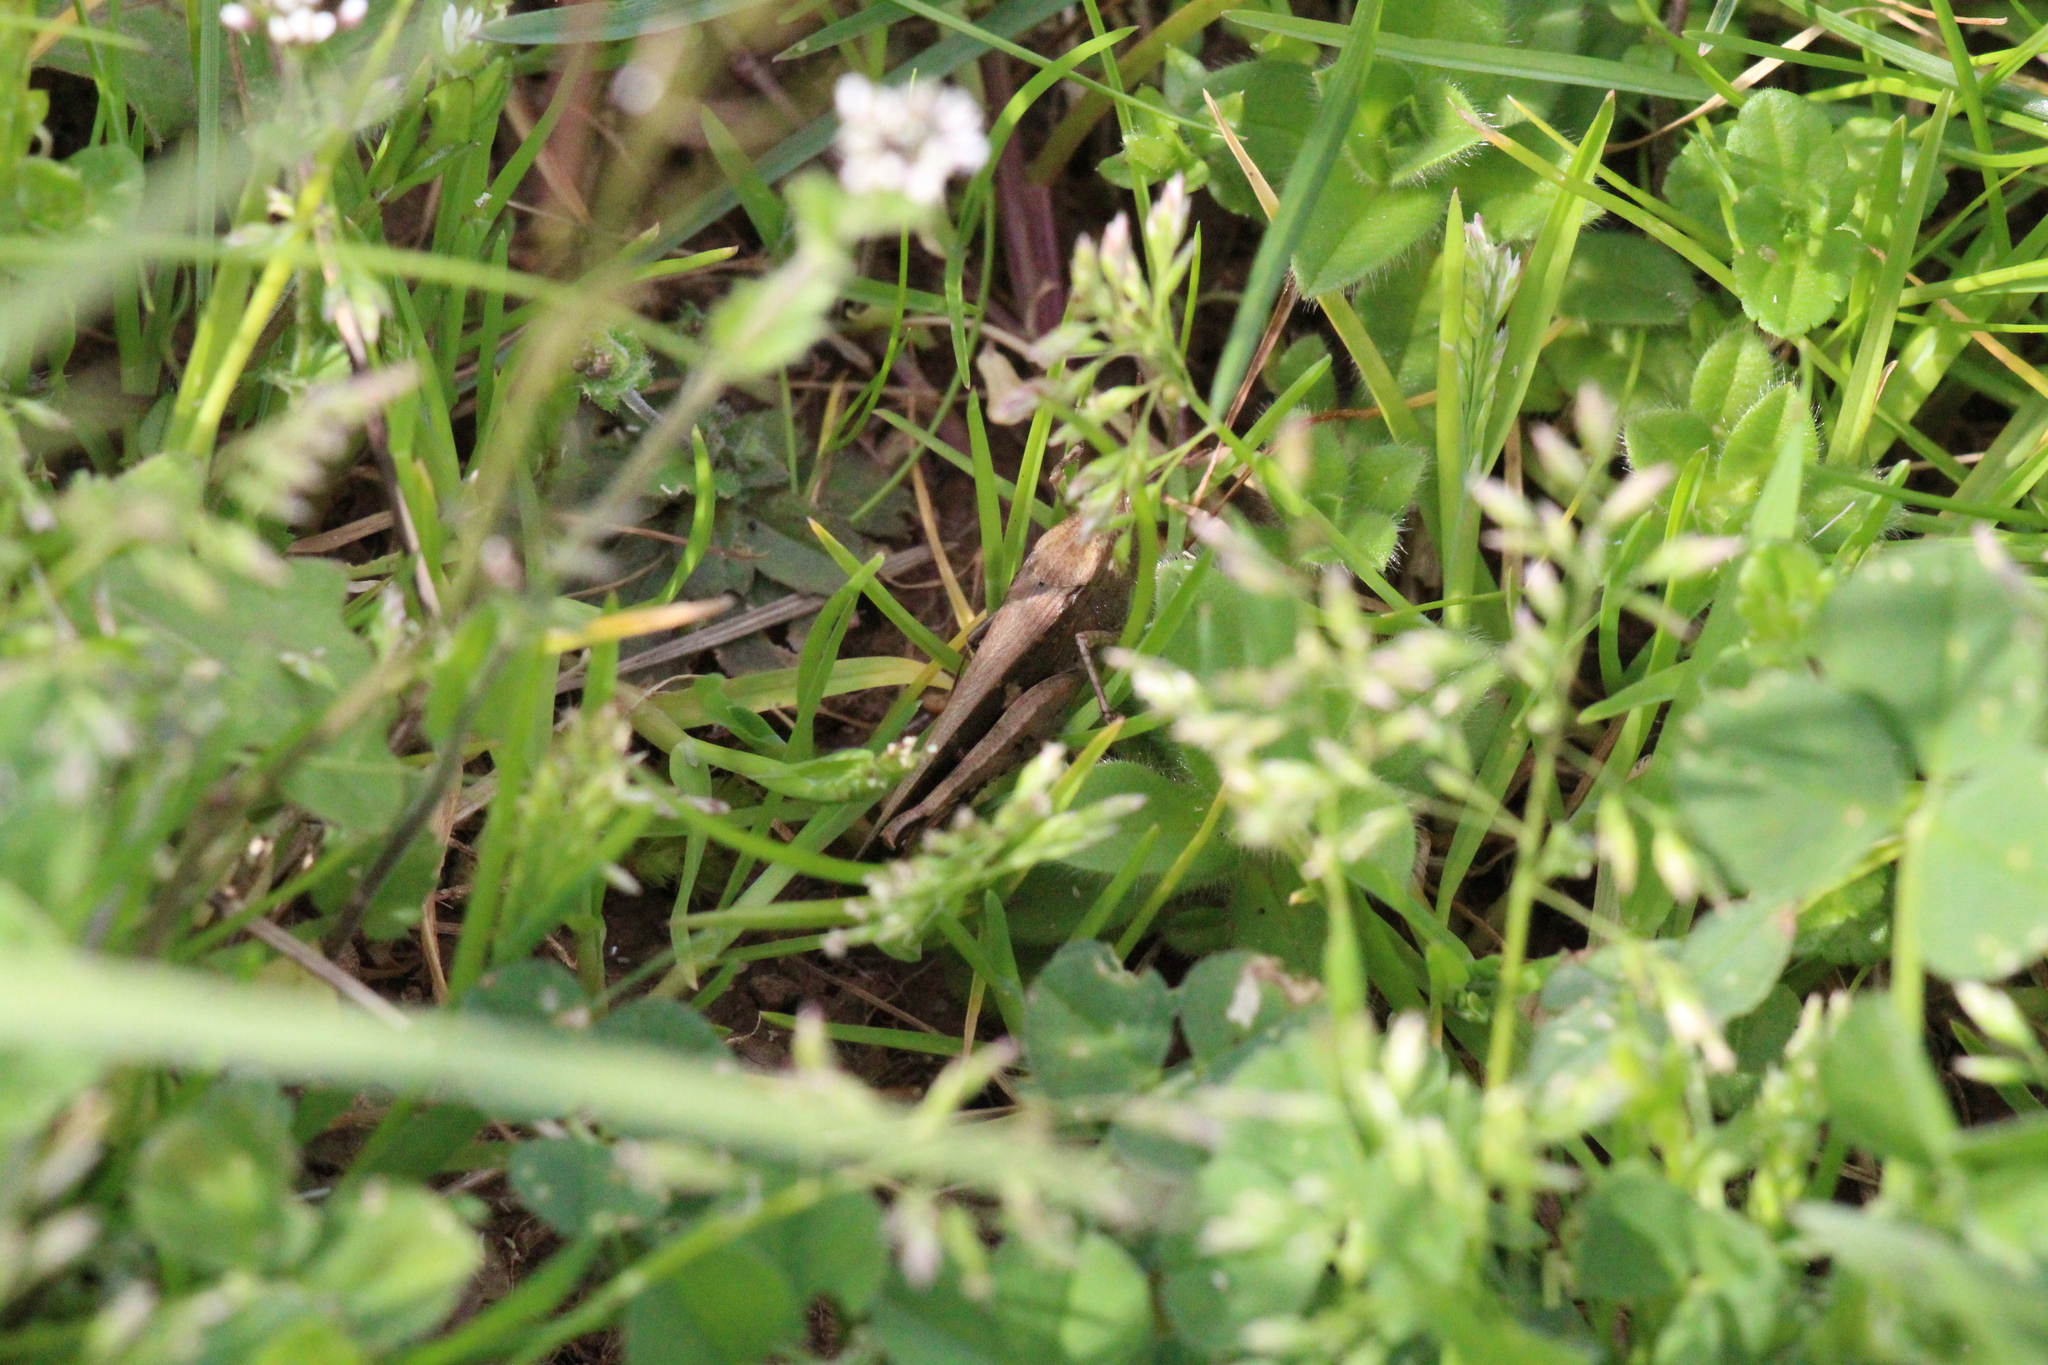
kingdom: Animalia
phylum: Arthropoda
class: Insecta
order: Orthoptera
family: Acrididae
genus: Aiolopus
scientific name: Aiolopus strepens
